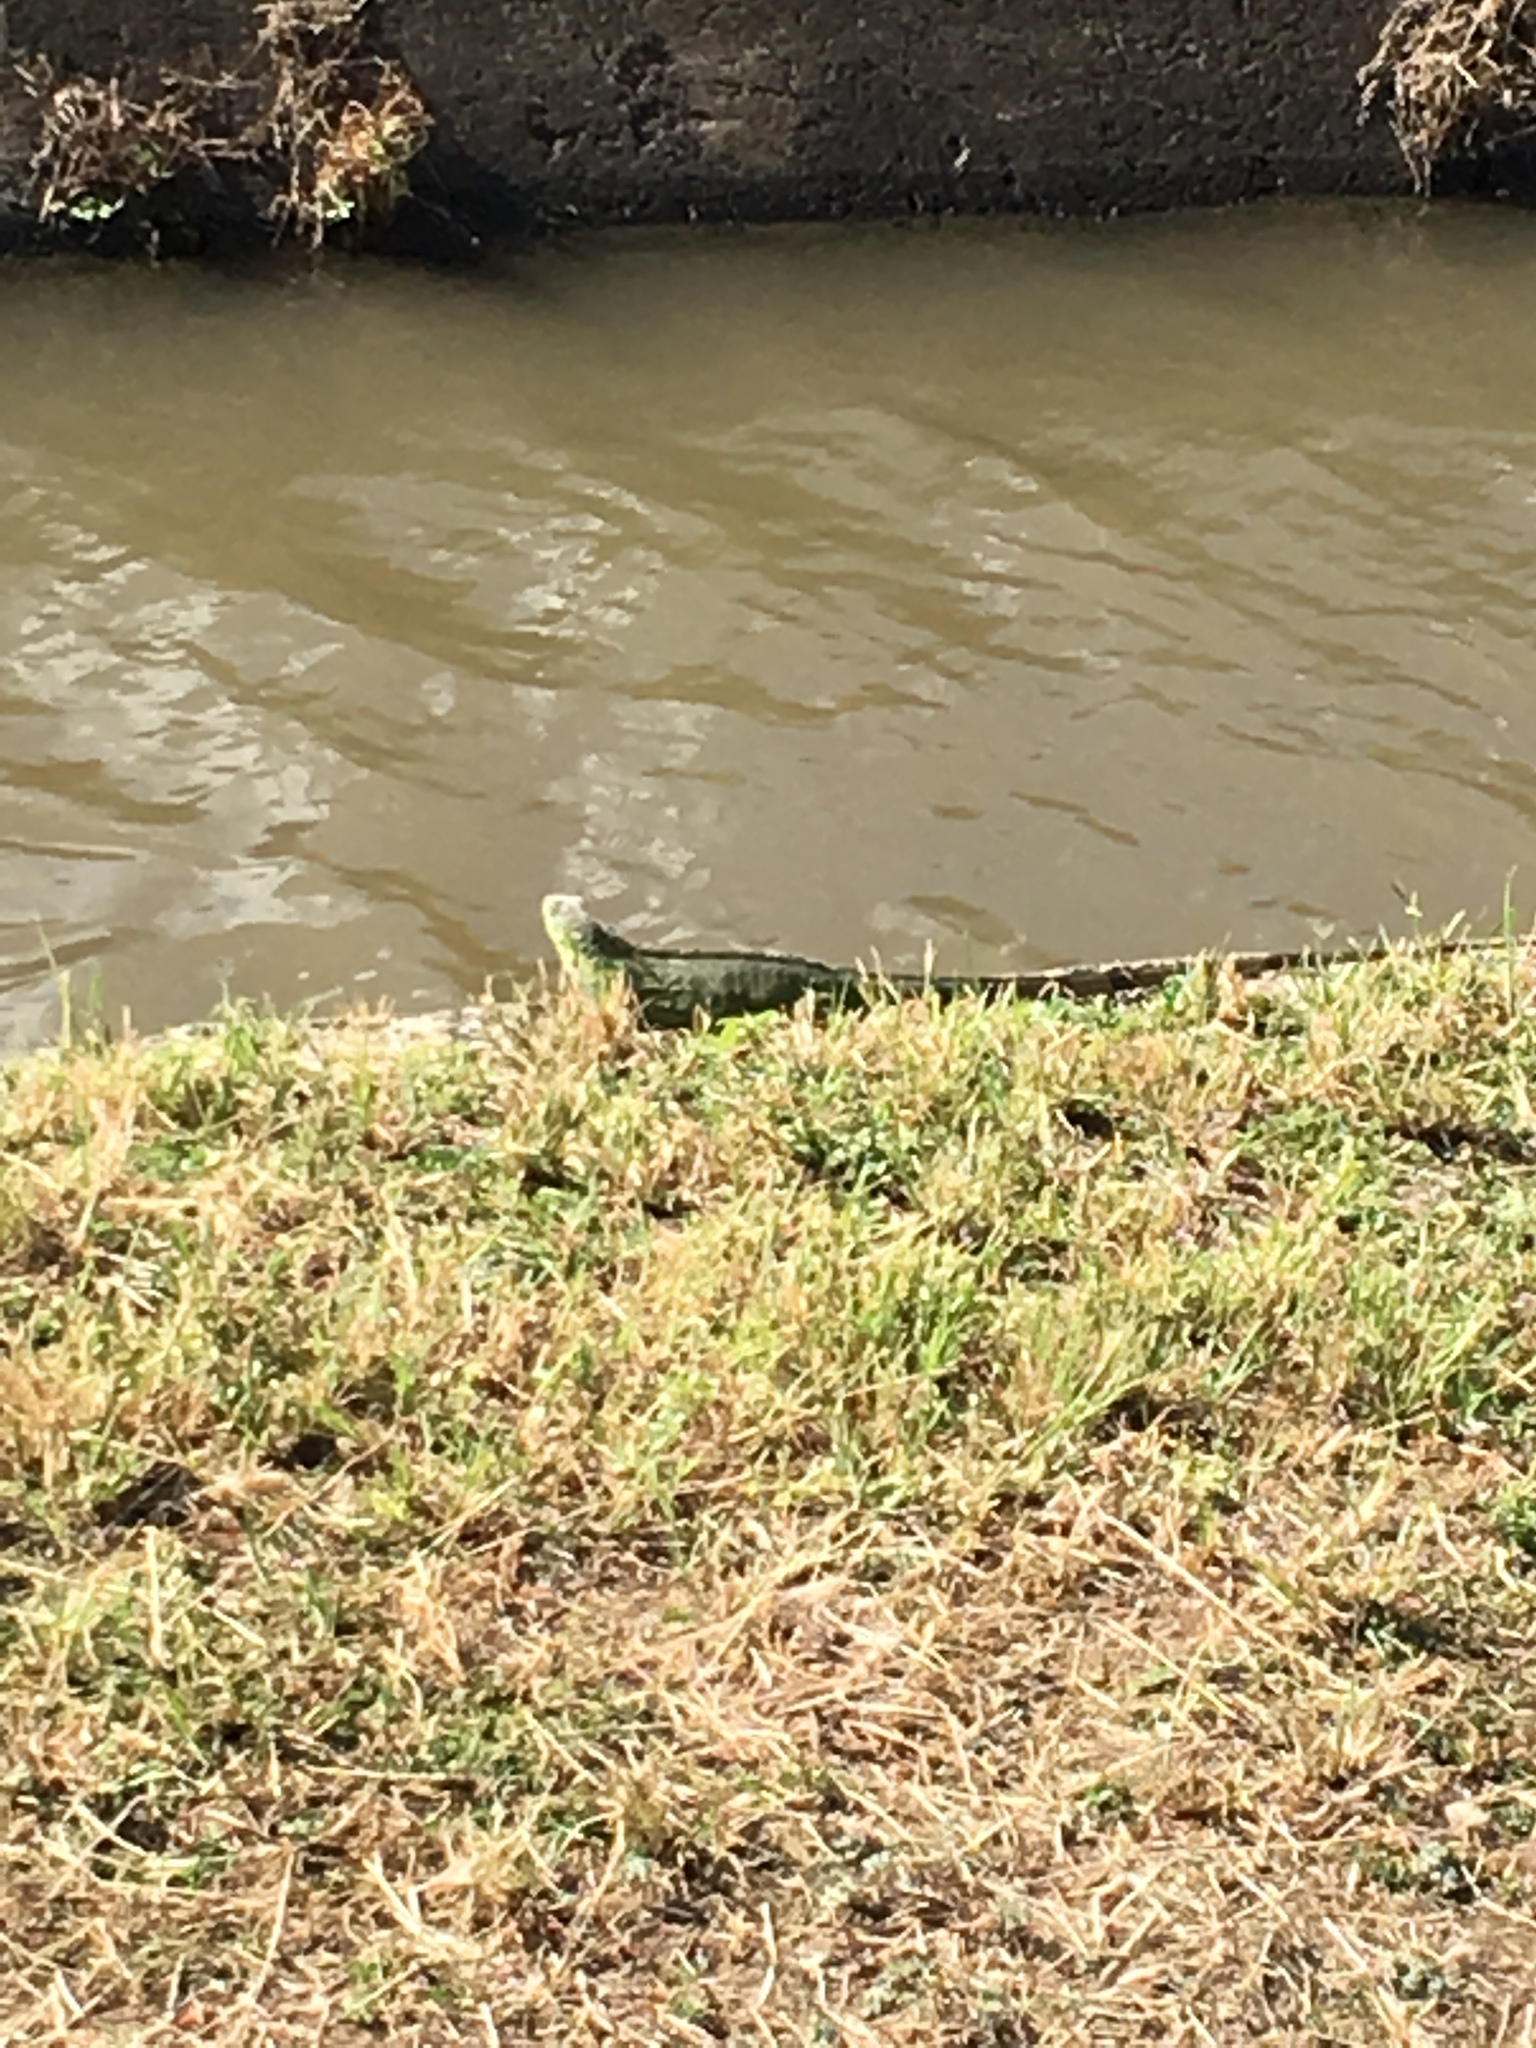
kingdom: Animalia
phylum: Chordata
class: Squamata
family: Iguanidae
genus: Iguana
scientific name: Iguana iguana
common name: Green iguana
